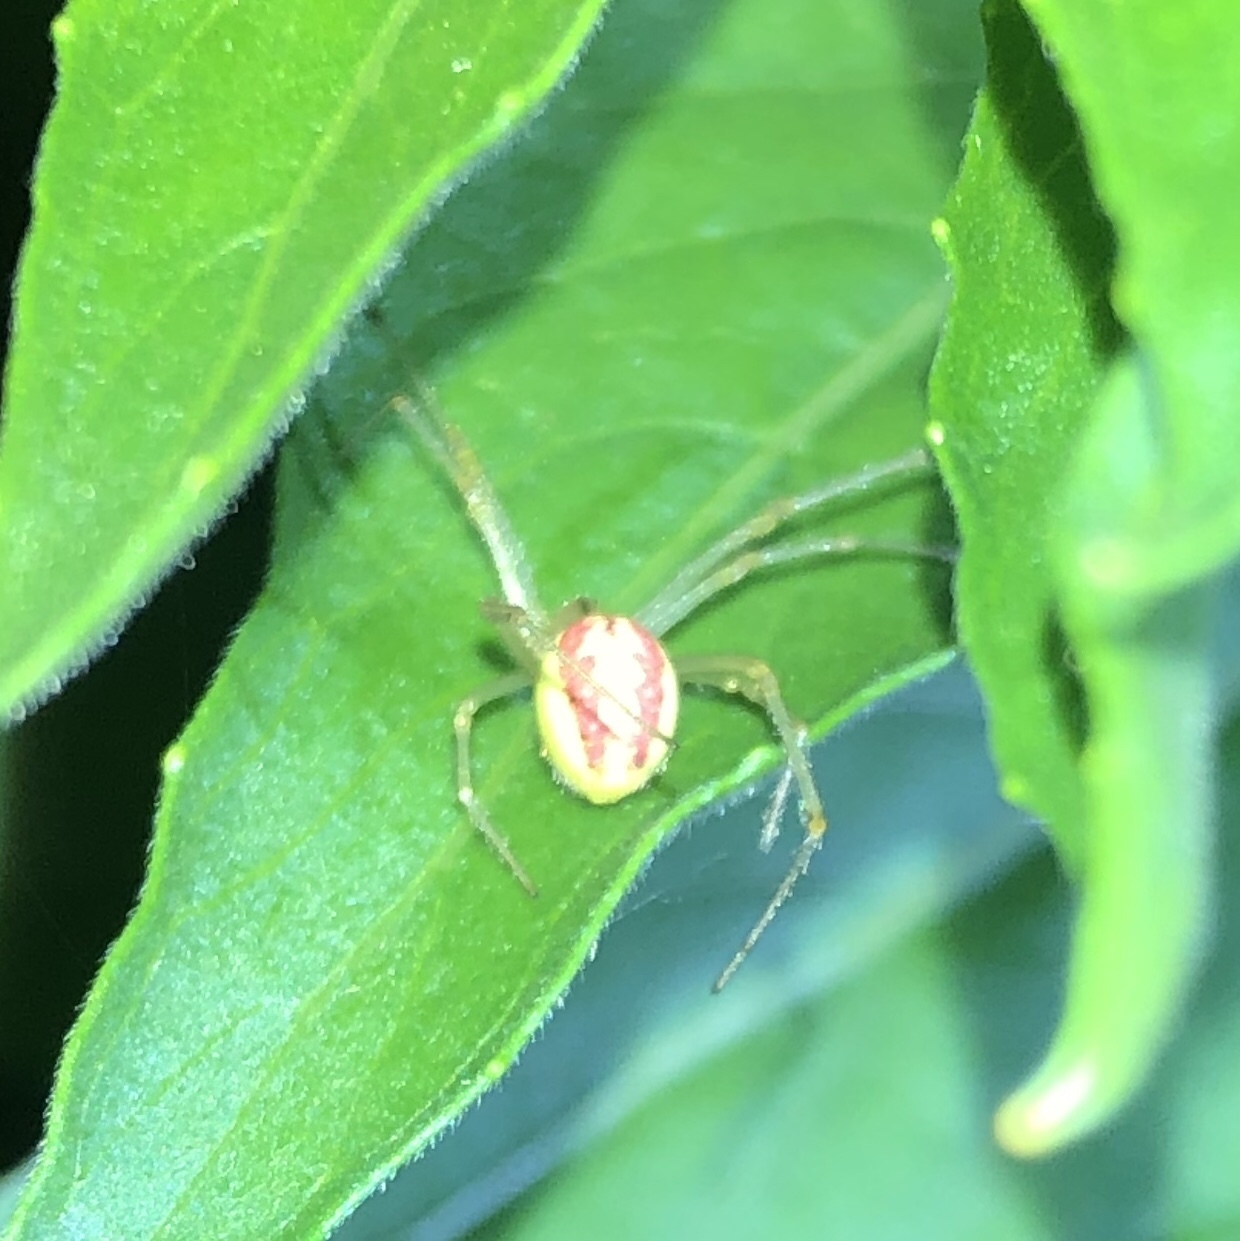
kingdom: Animalia
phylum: Arthropoda
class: Arachnida
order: Araneae
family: Theridiidae
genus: Enoplognatha
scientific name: Enoplognatha ovata
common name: Common candy-striped spider
